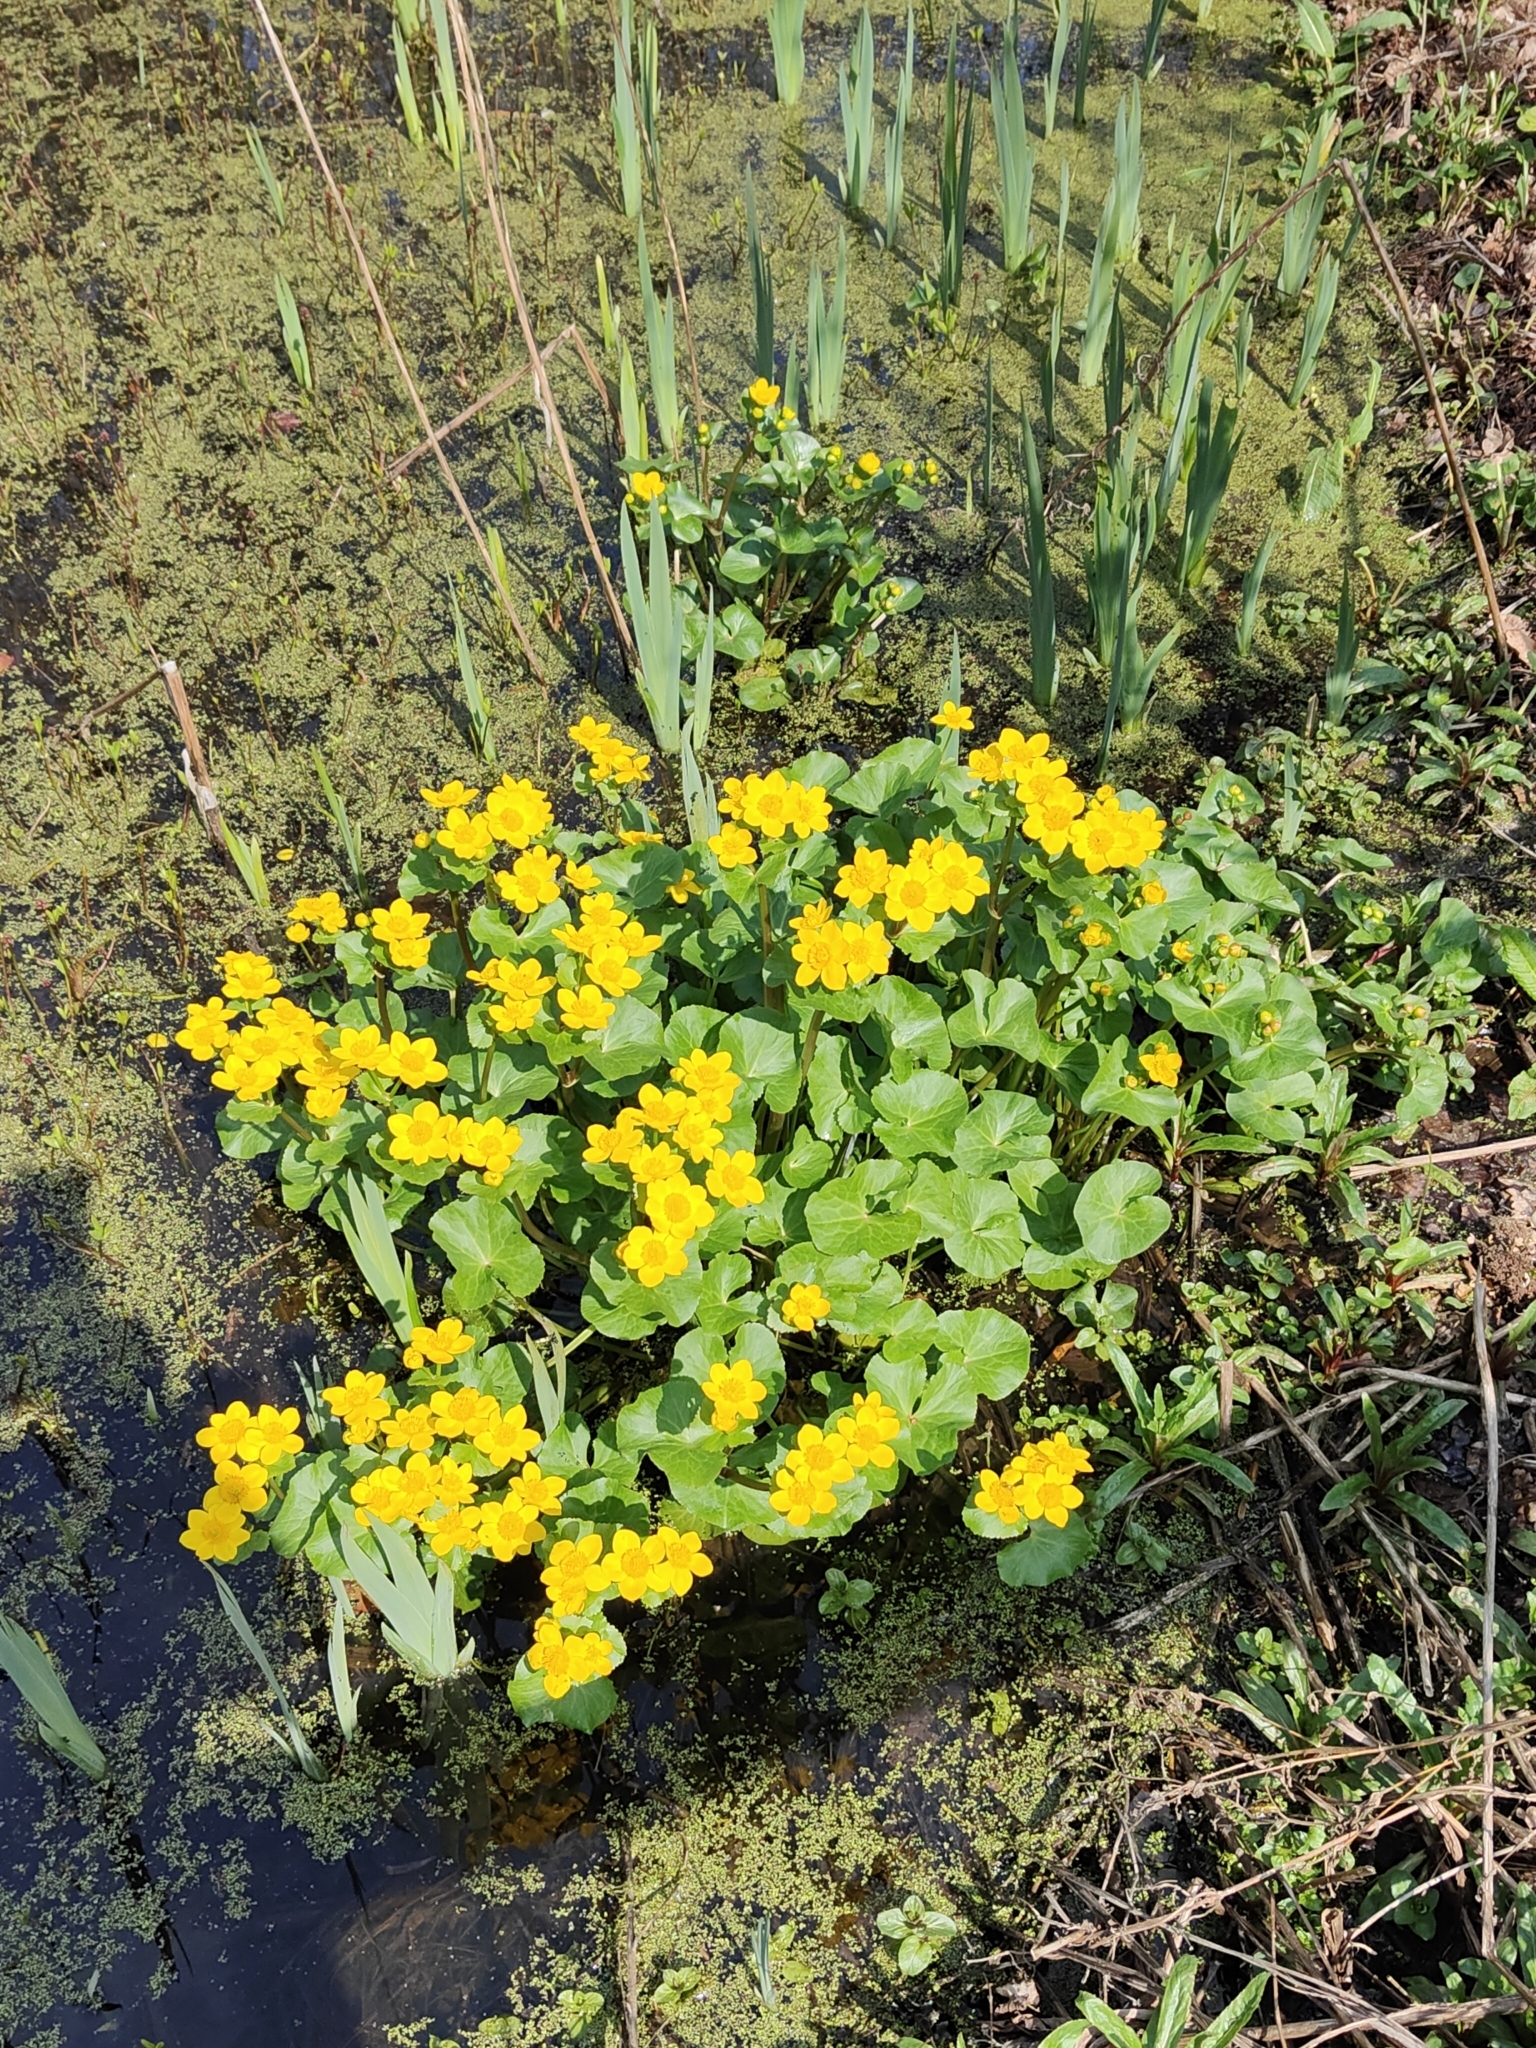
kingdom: Plantae
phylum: Tracheophyta
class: Magnoliopsida
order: Ranunculales
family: Ranunculaceae
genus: Caltha
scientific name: Caltha palustris
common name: Marsh marigold
